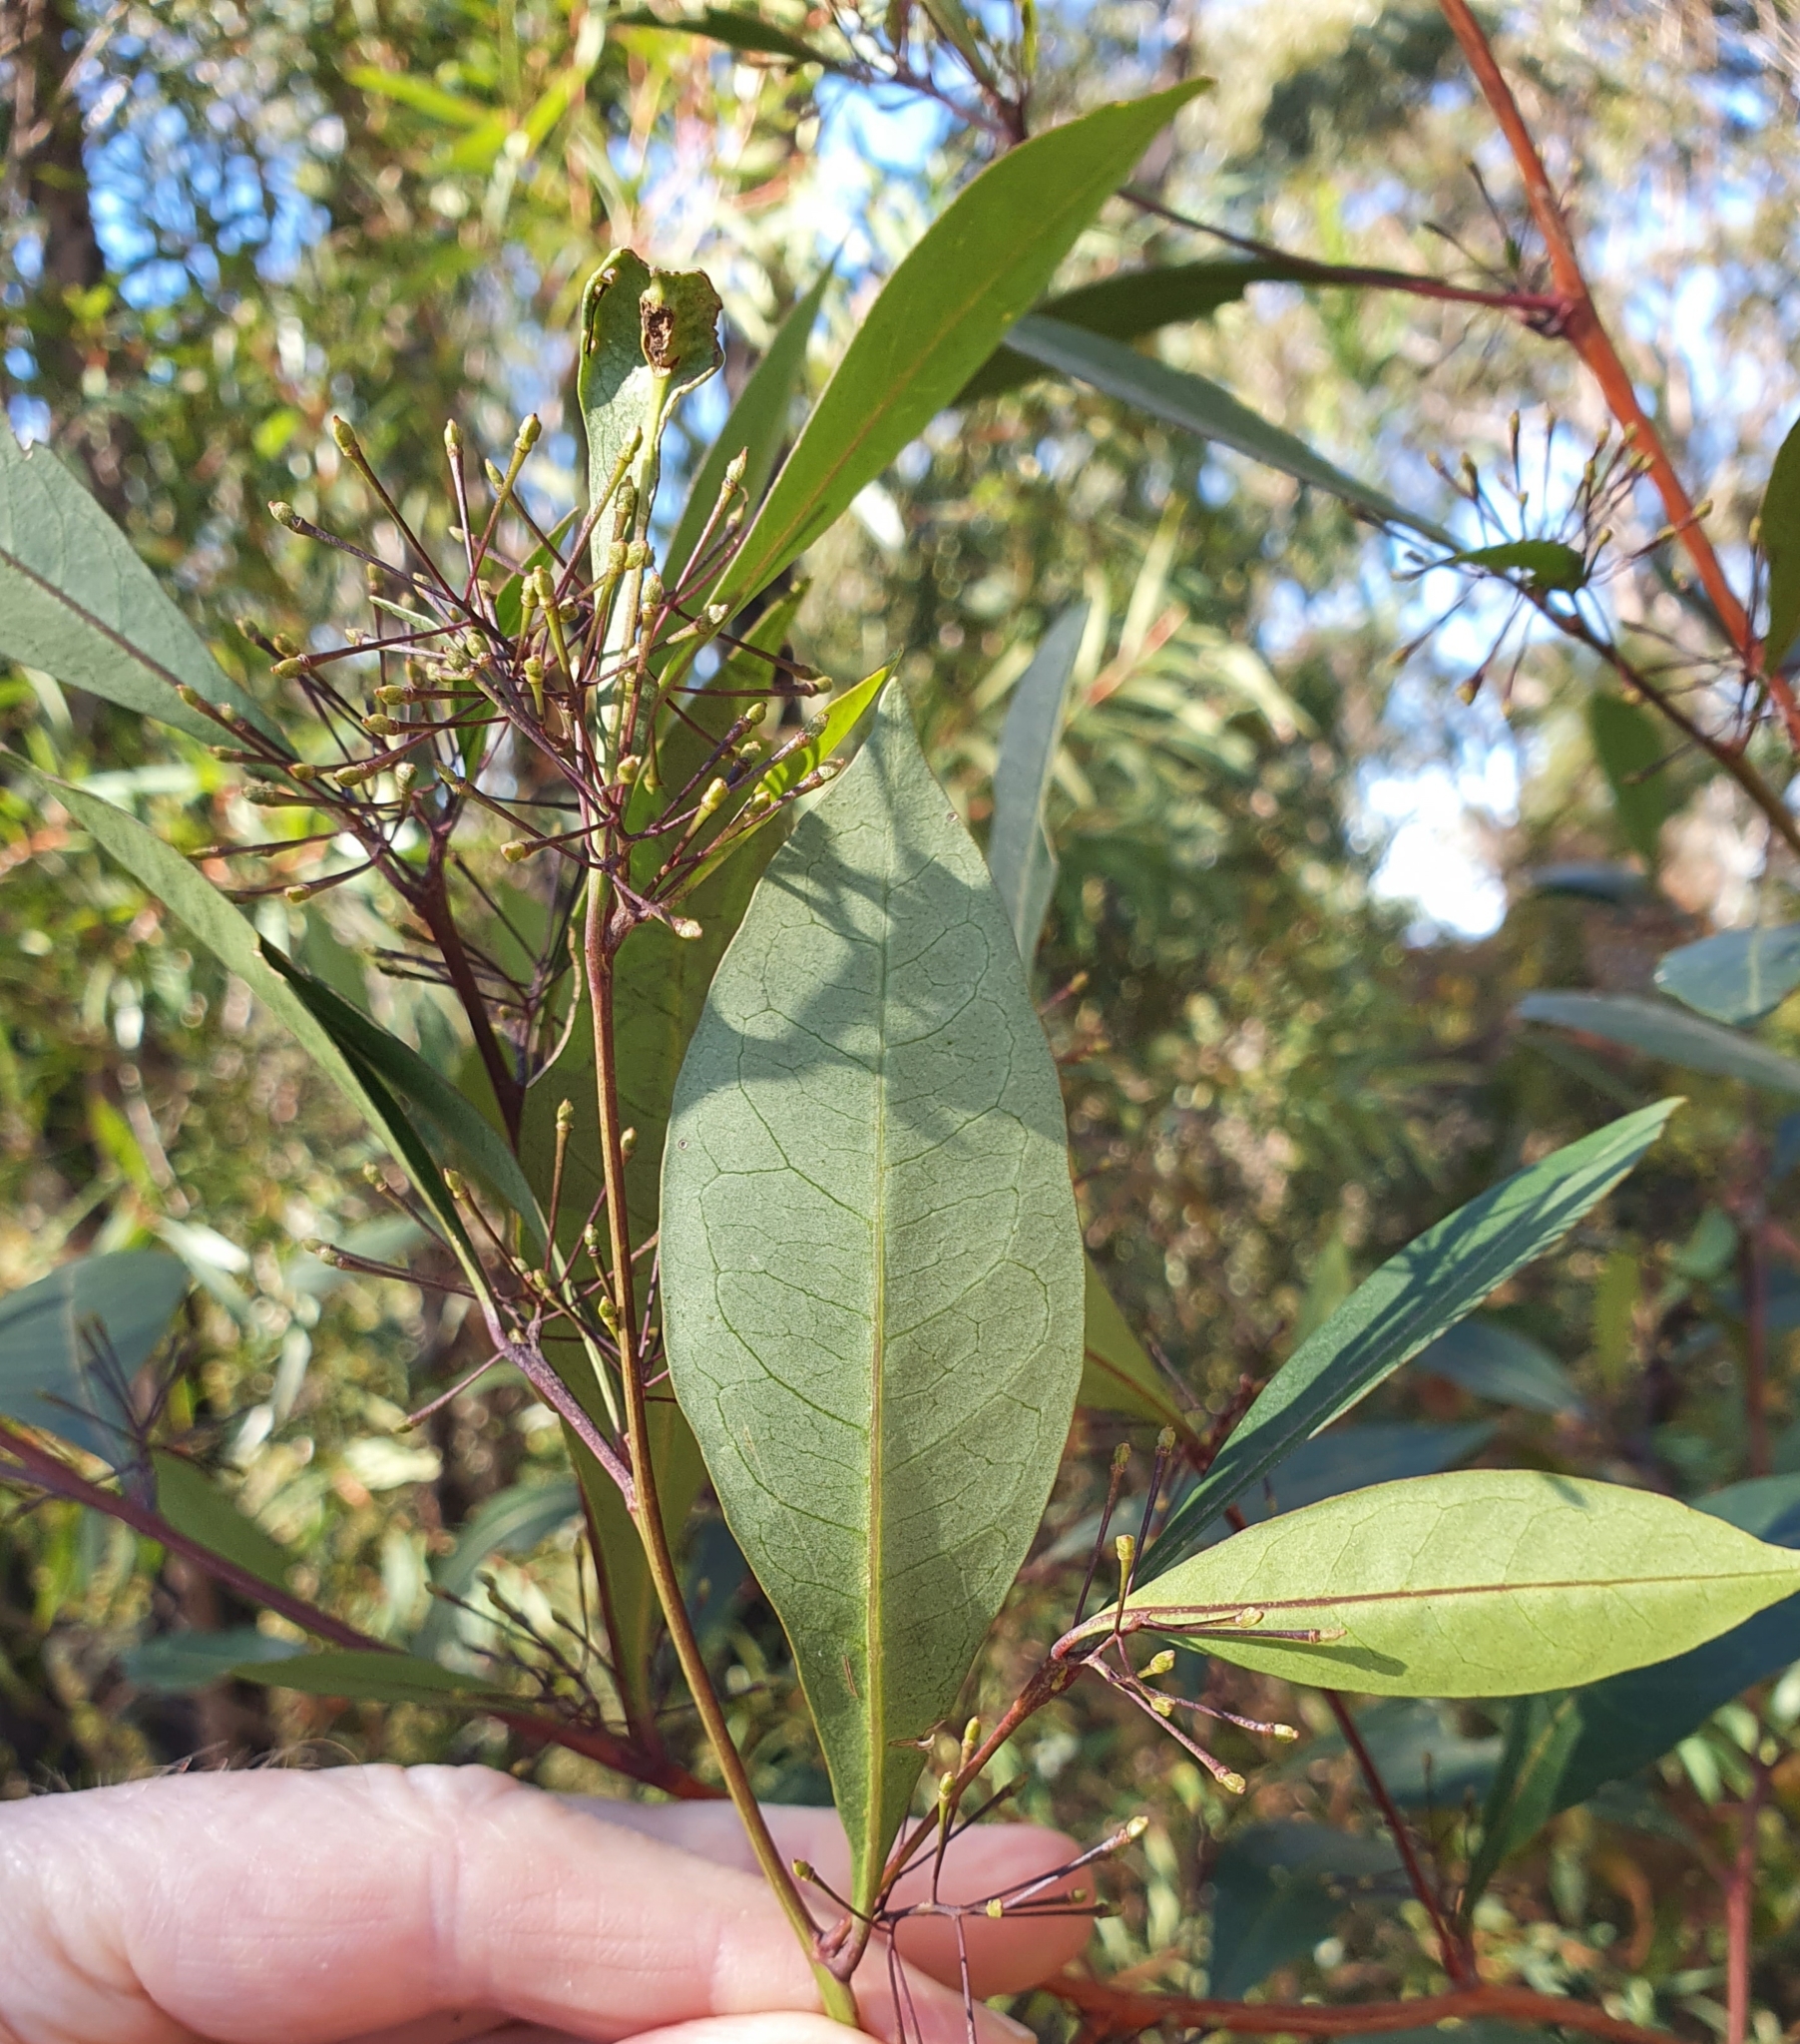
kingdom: Plantae
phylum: Tracheophyta
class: Magnoliopsida
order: Sapindales
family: Sapindaceae
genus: Dodonaea
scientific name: Dodonaea triquetra
